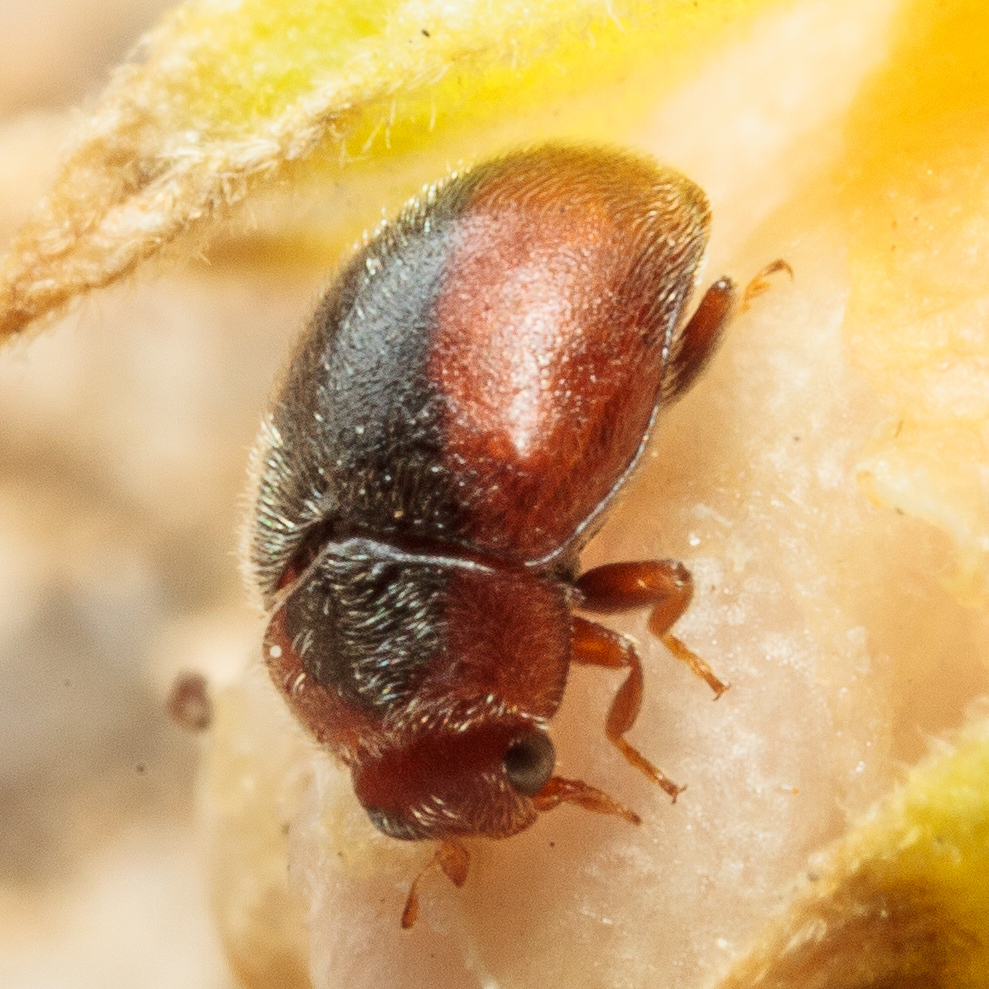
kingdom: Animalia
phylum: Arthropoda
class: Insecta
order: Coleoptera
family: Coccinellidae
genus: Scymnus
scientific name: Scymnus loewii
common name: Dusky lady beetle
